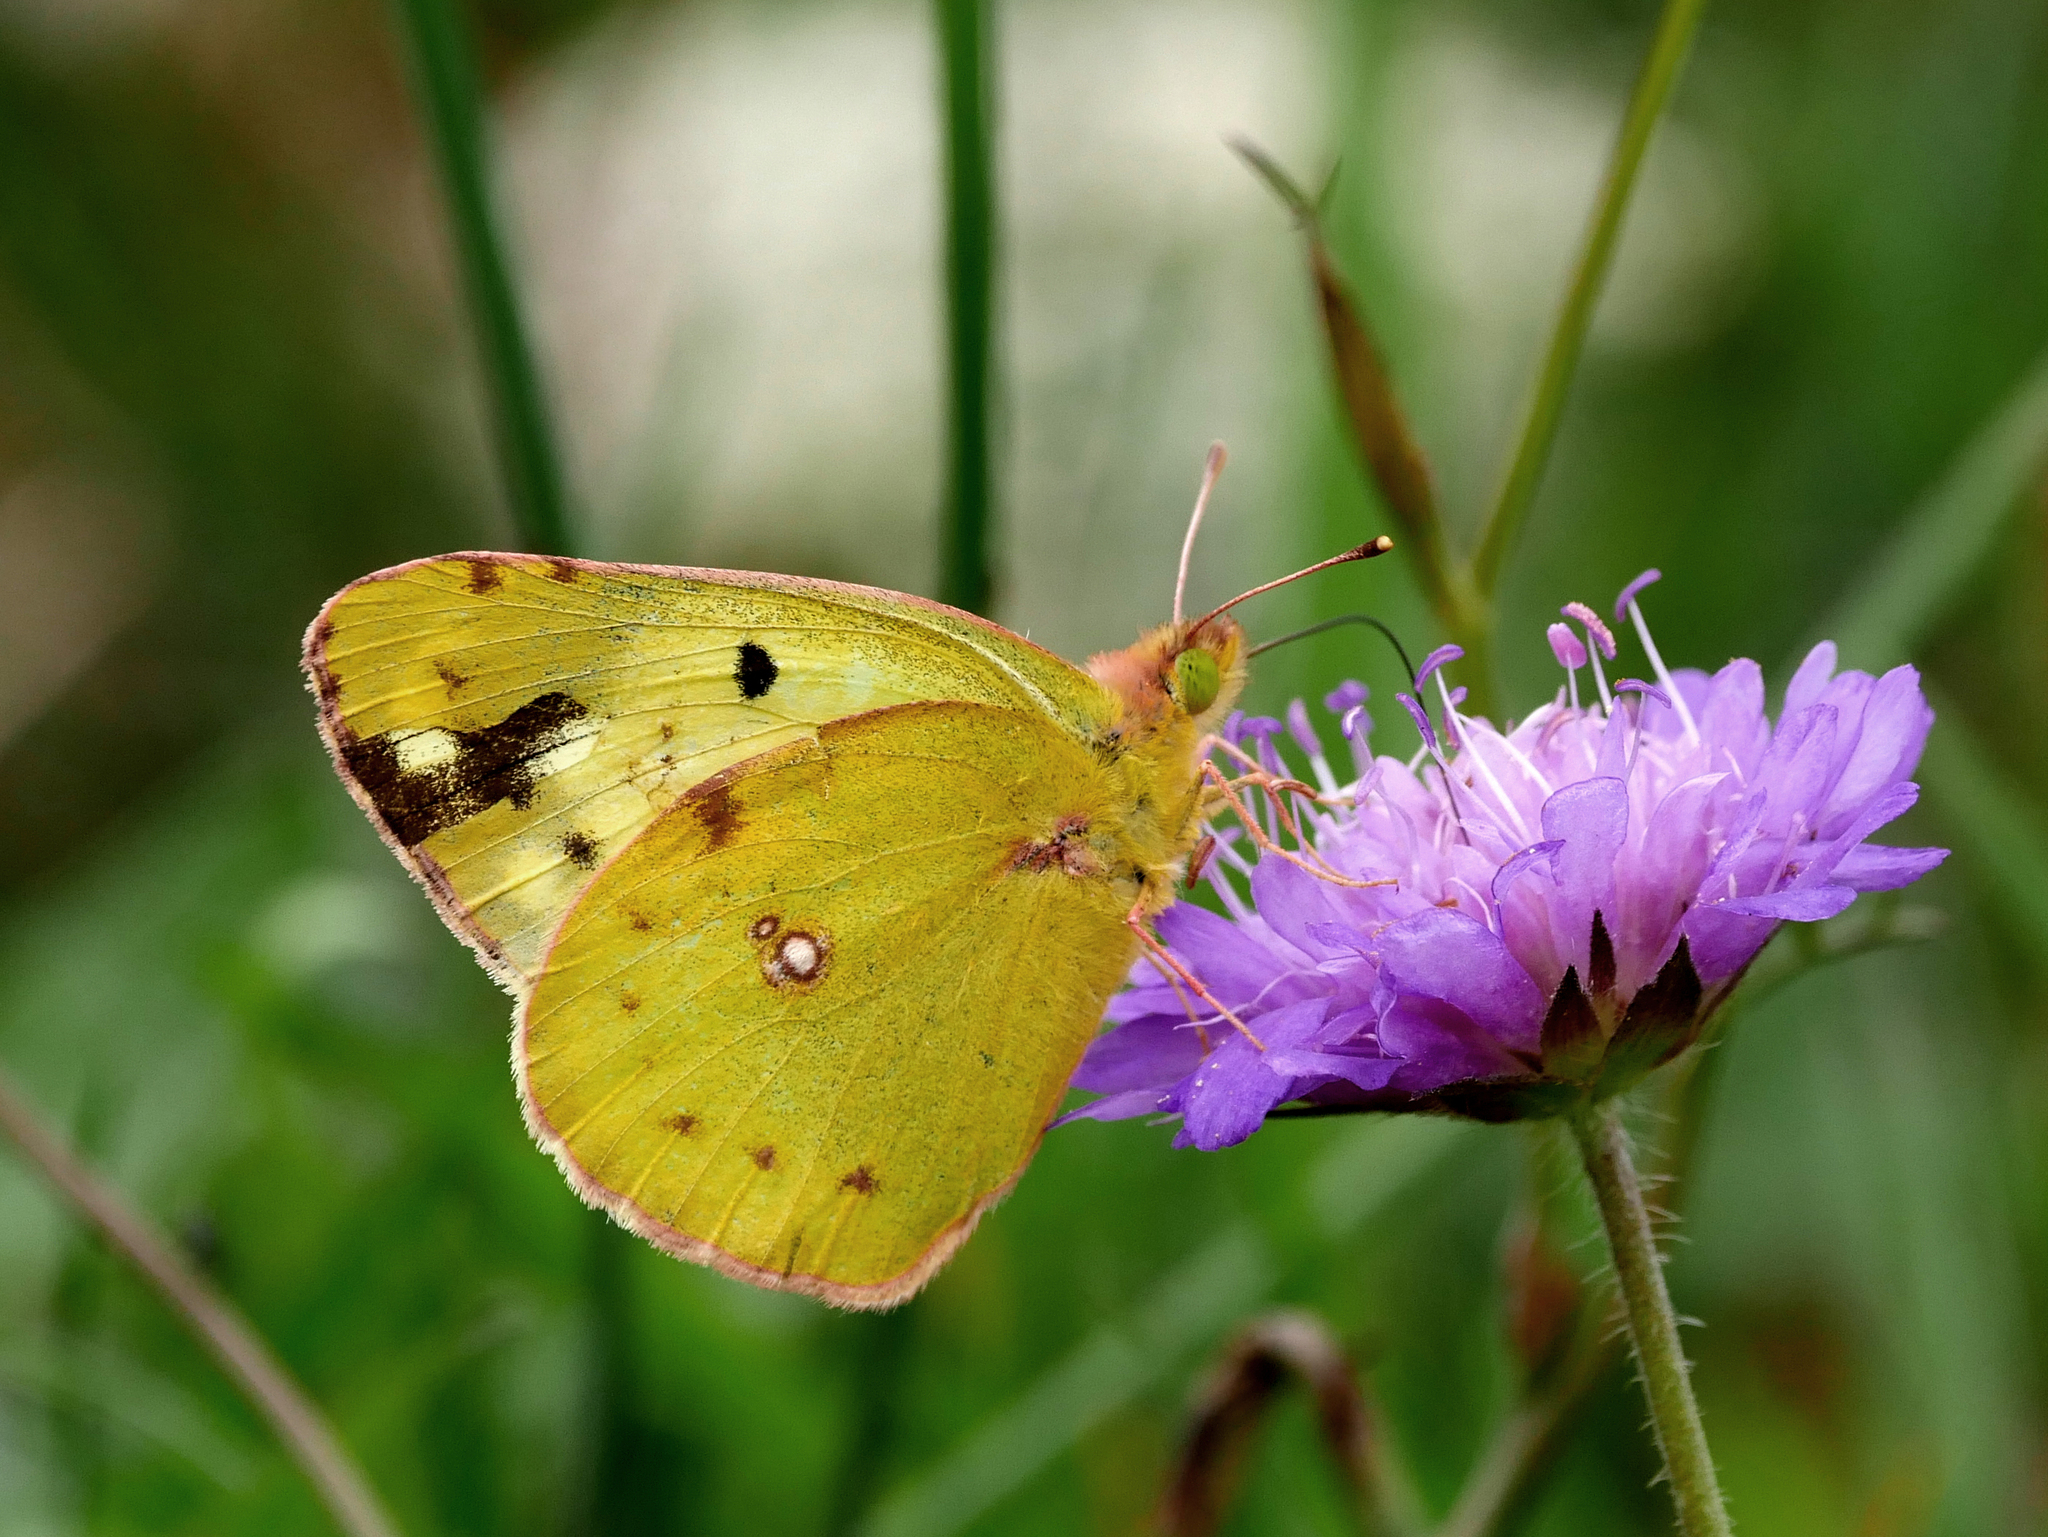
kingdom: Animalia
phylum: Arthropoda
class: Insecta
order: Lepidoptera
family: Pieridae
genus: Colias
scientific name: Colias hyale
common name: Pale clouded yellow
